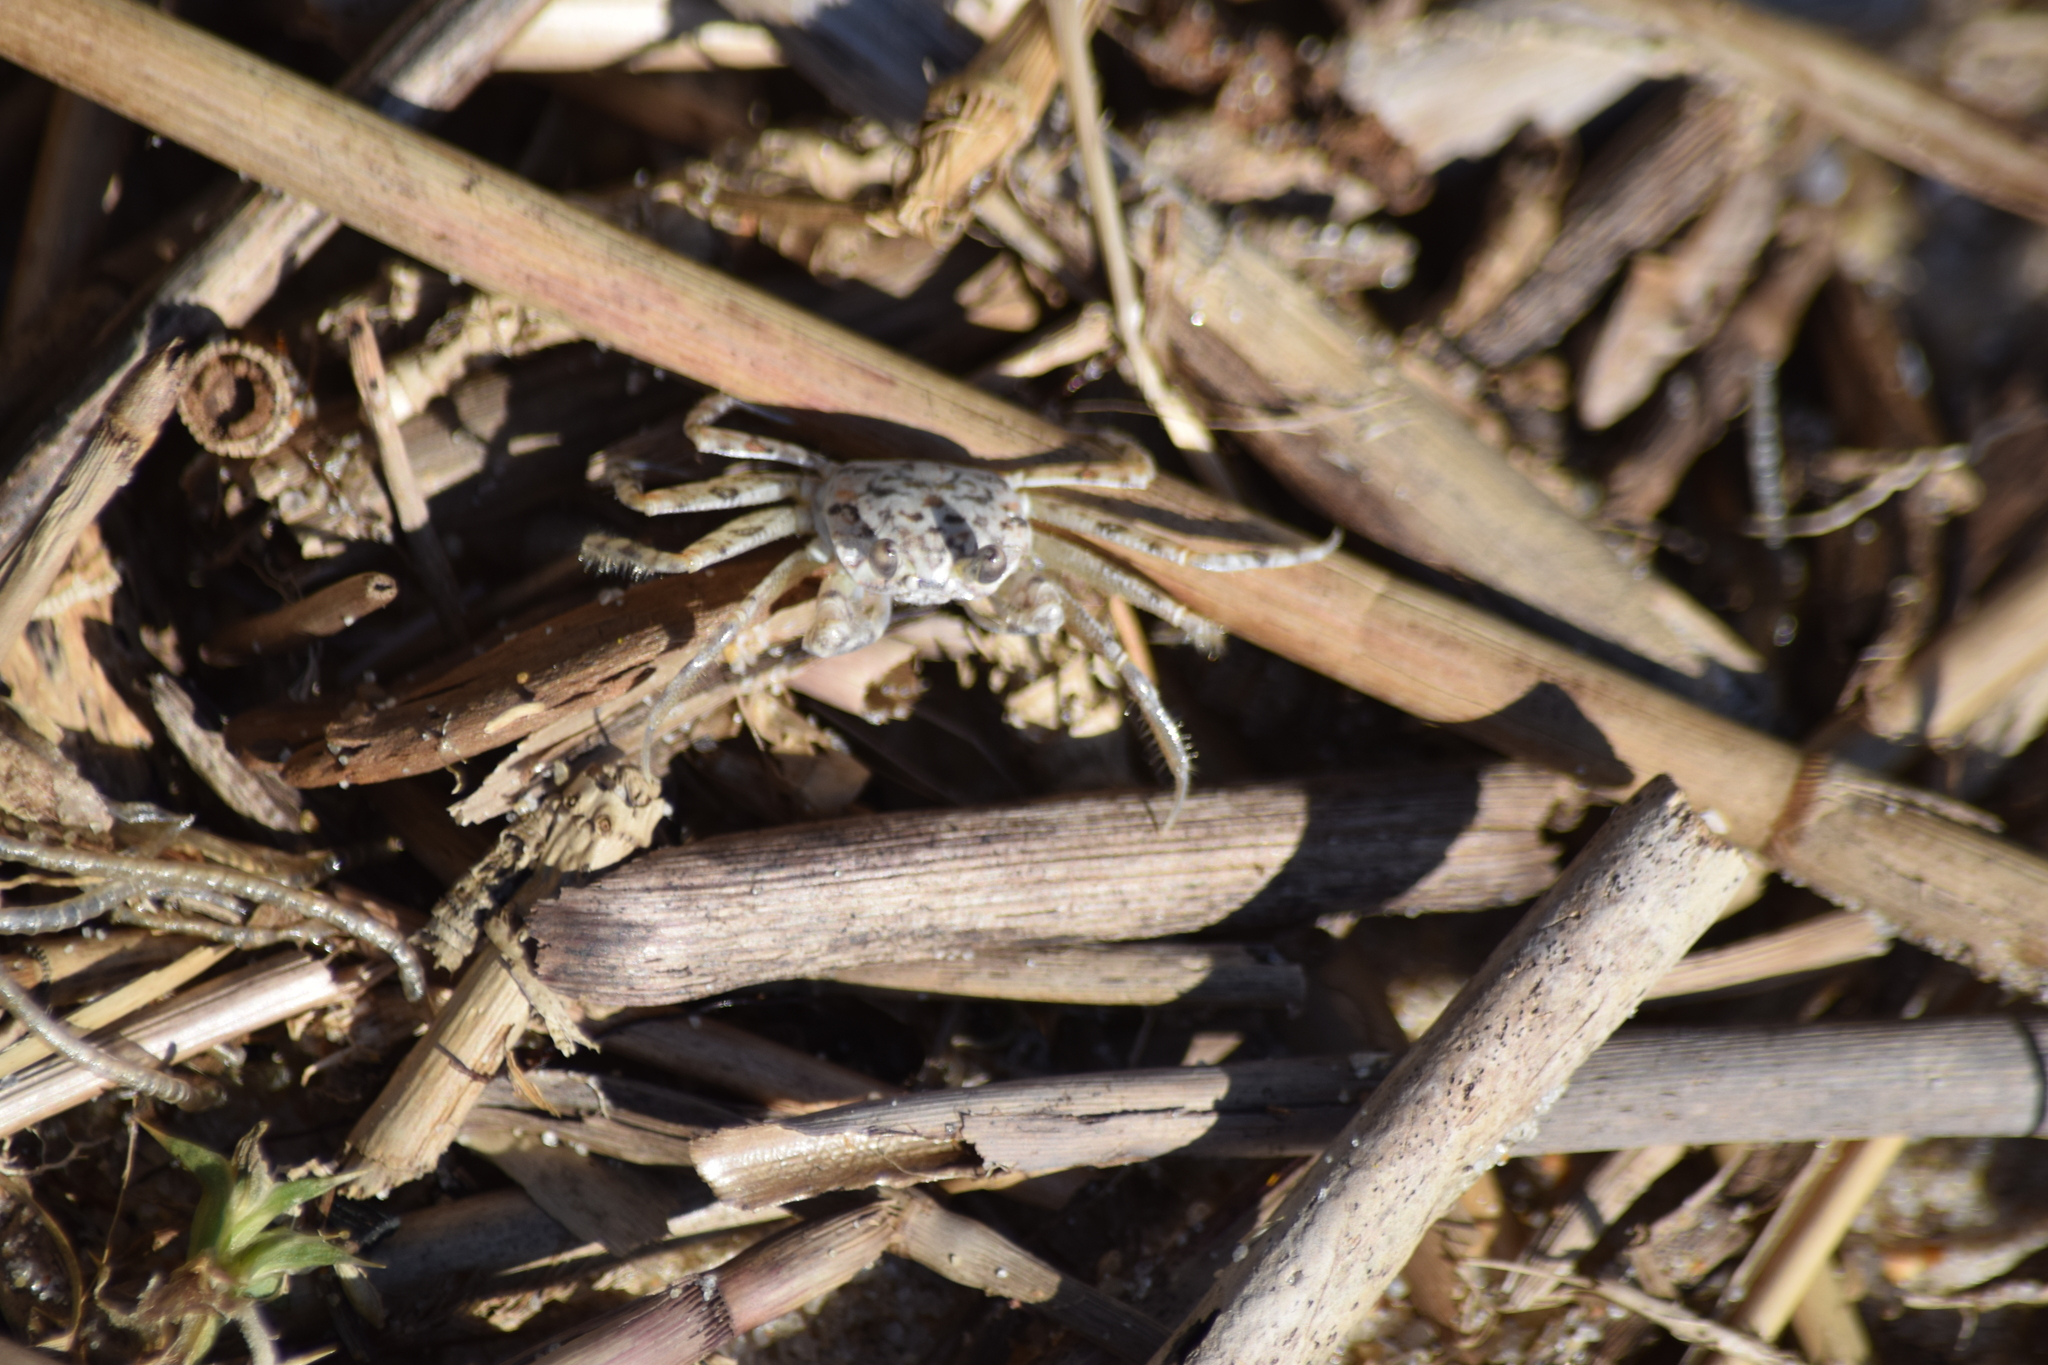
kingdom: Animalia
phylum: Arthropoda
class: Malacostraca
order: Decapoda
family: Ocypodidae
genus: Ocypode
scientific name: Ocypode quadrata
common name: Ghost crab
